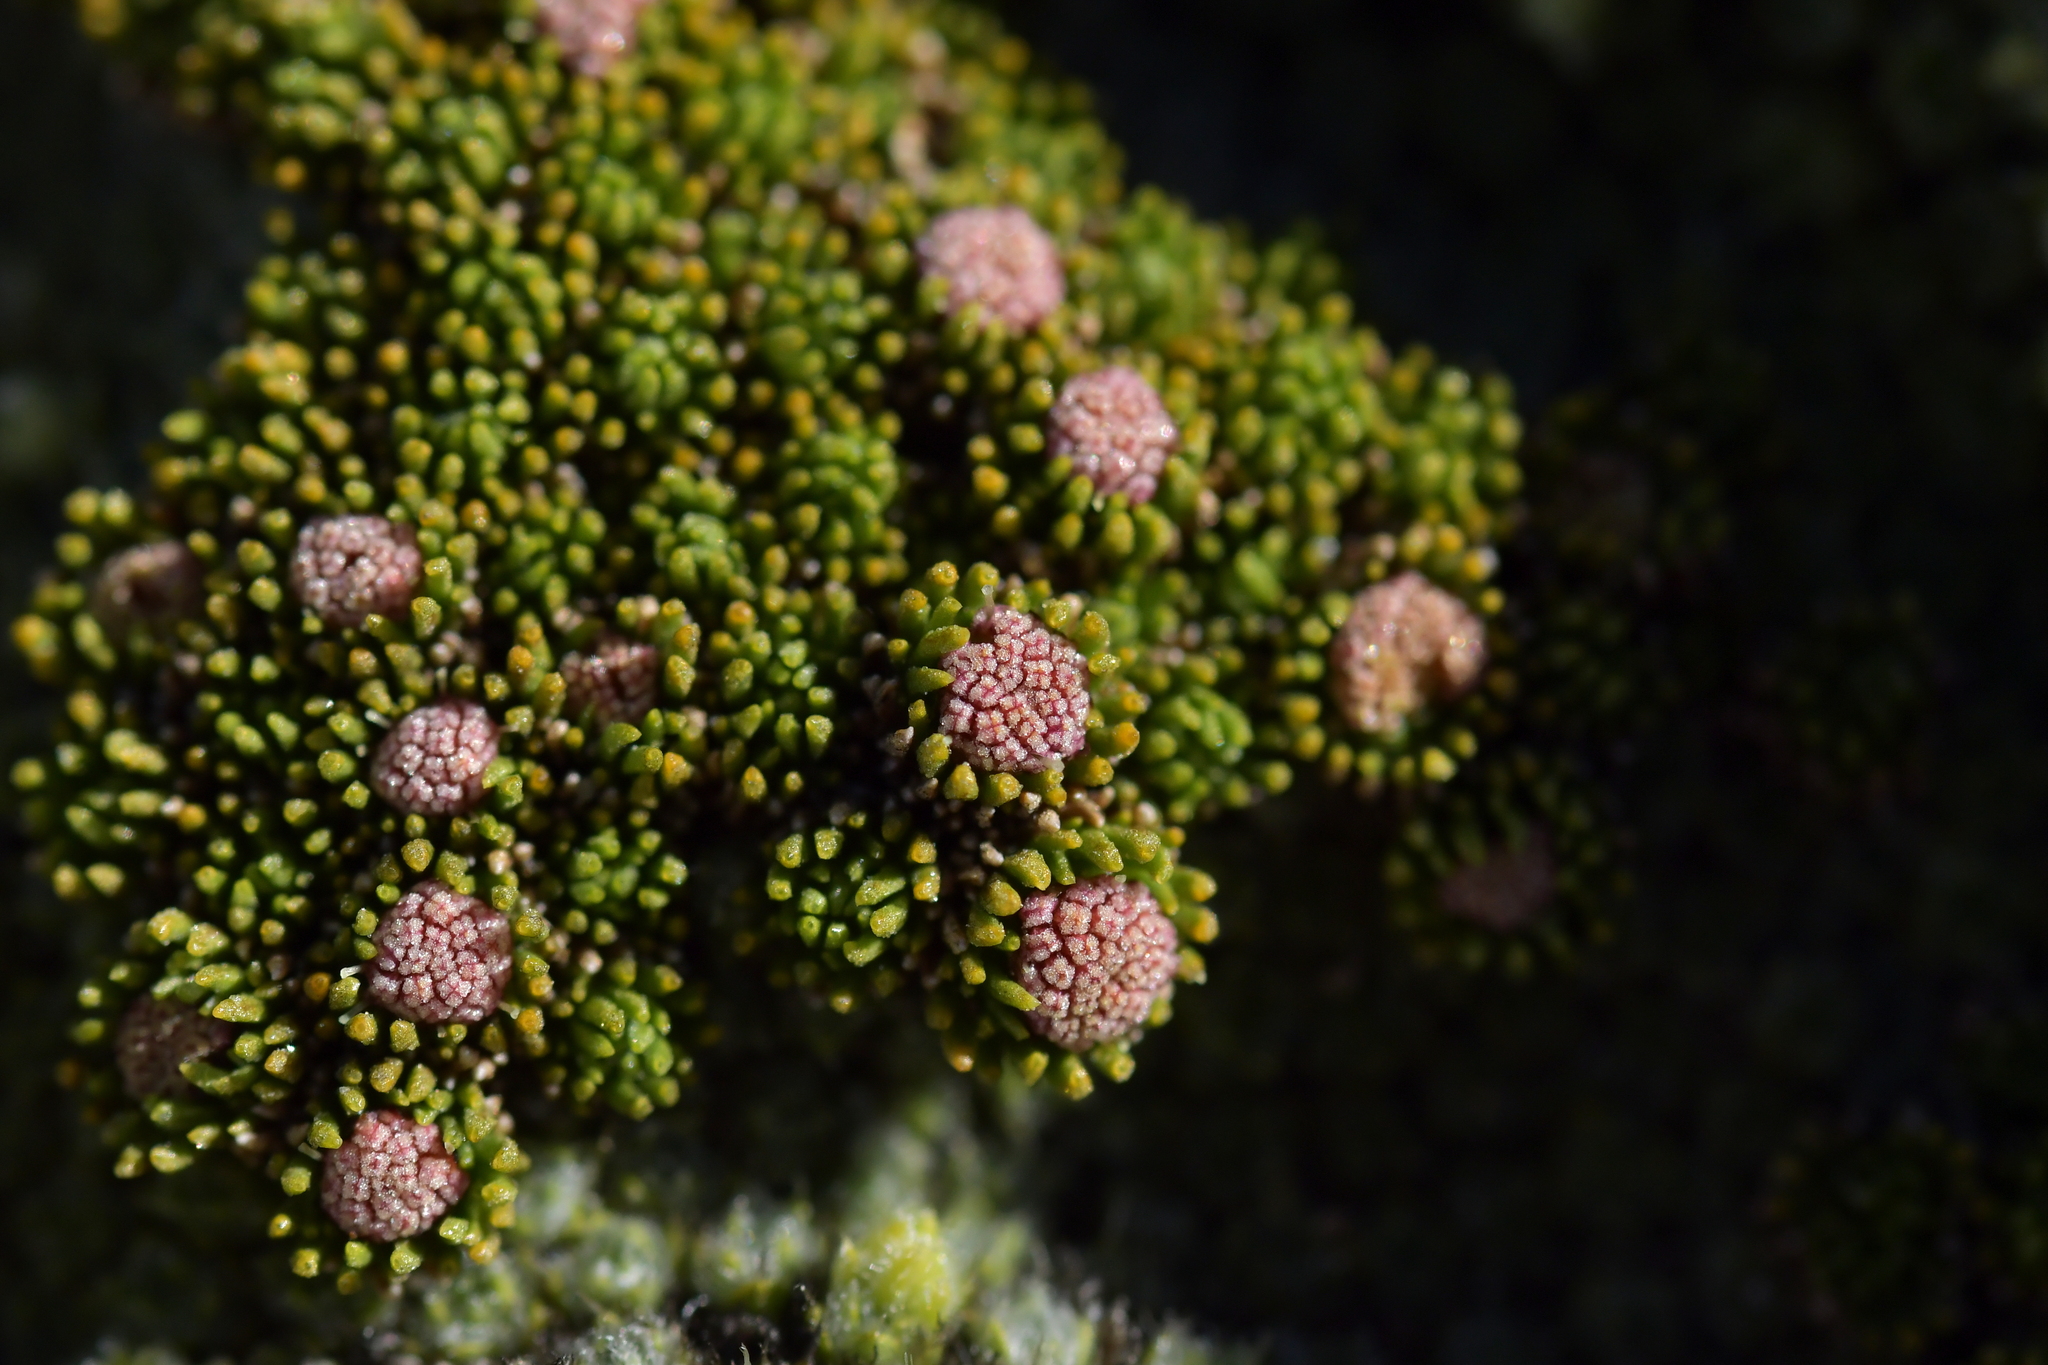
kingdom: Plantae
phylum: Tracheophyta
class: Magnoliopsida
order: Asterales
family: Asteraceae
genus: Leptinella
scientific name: Leptinella goyenii
